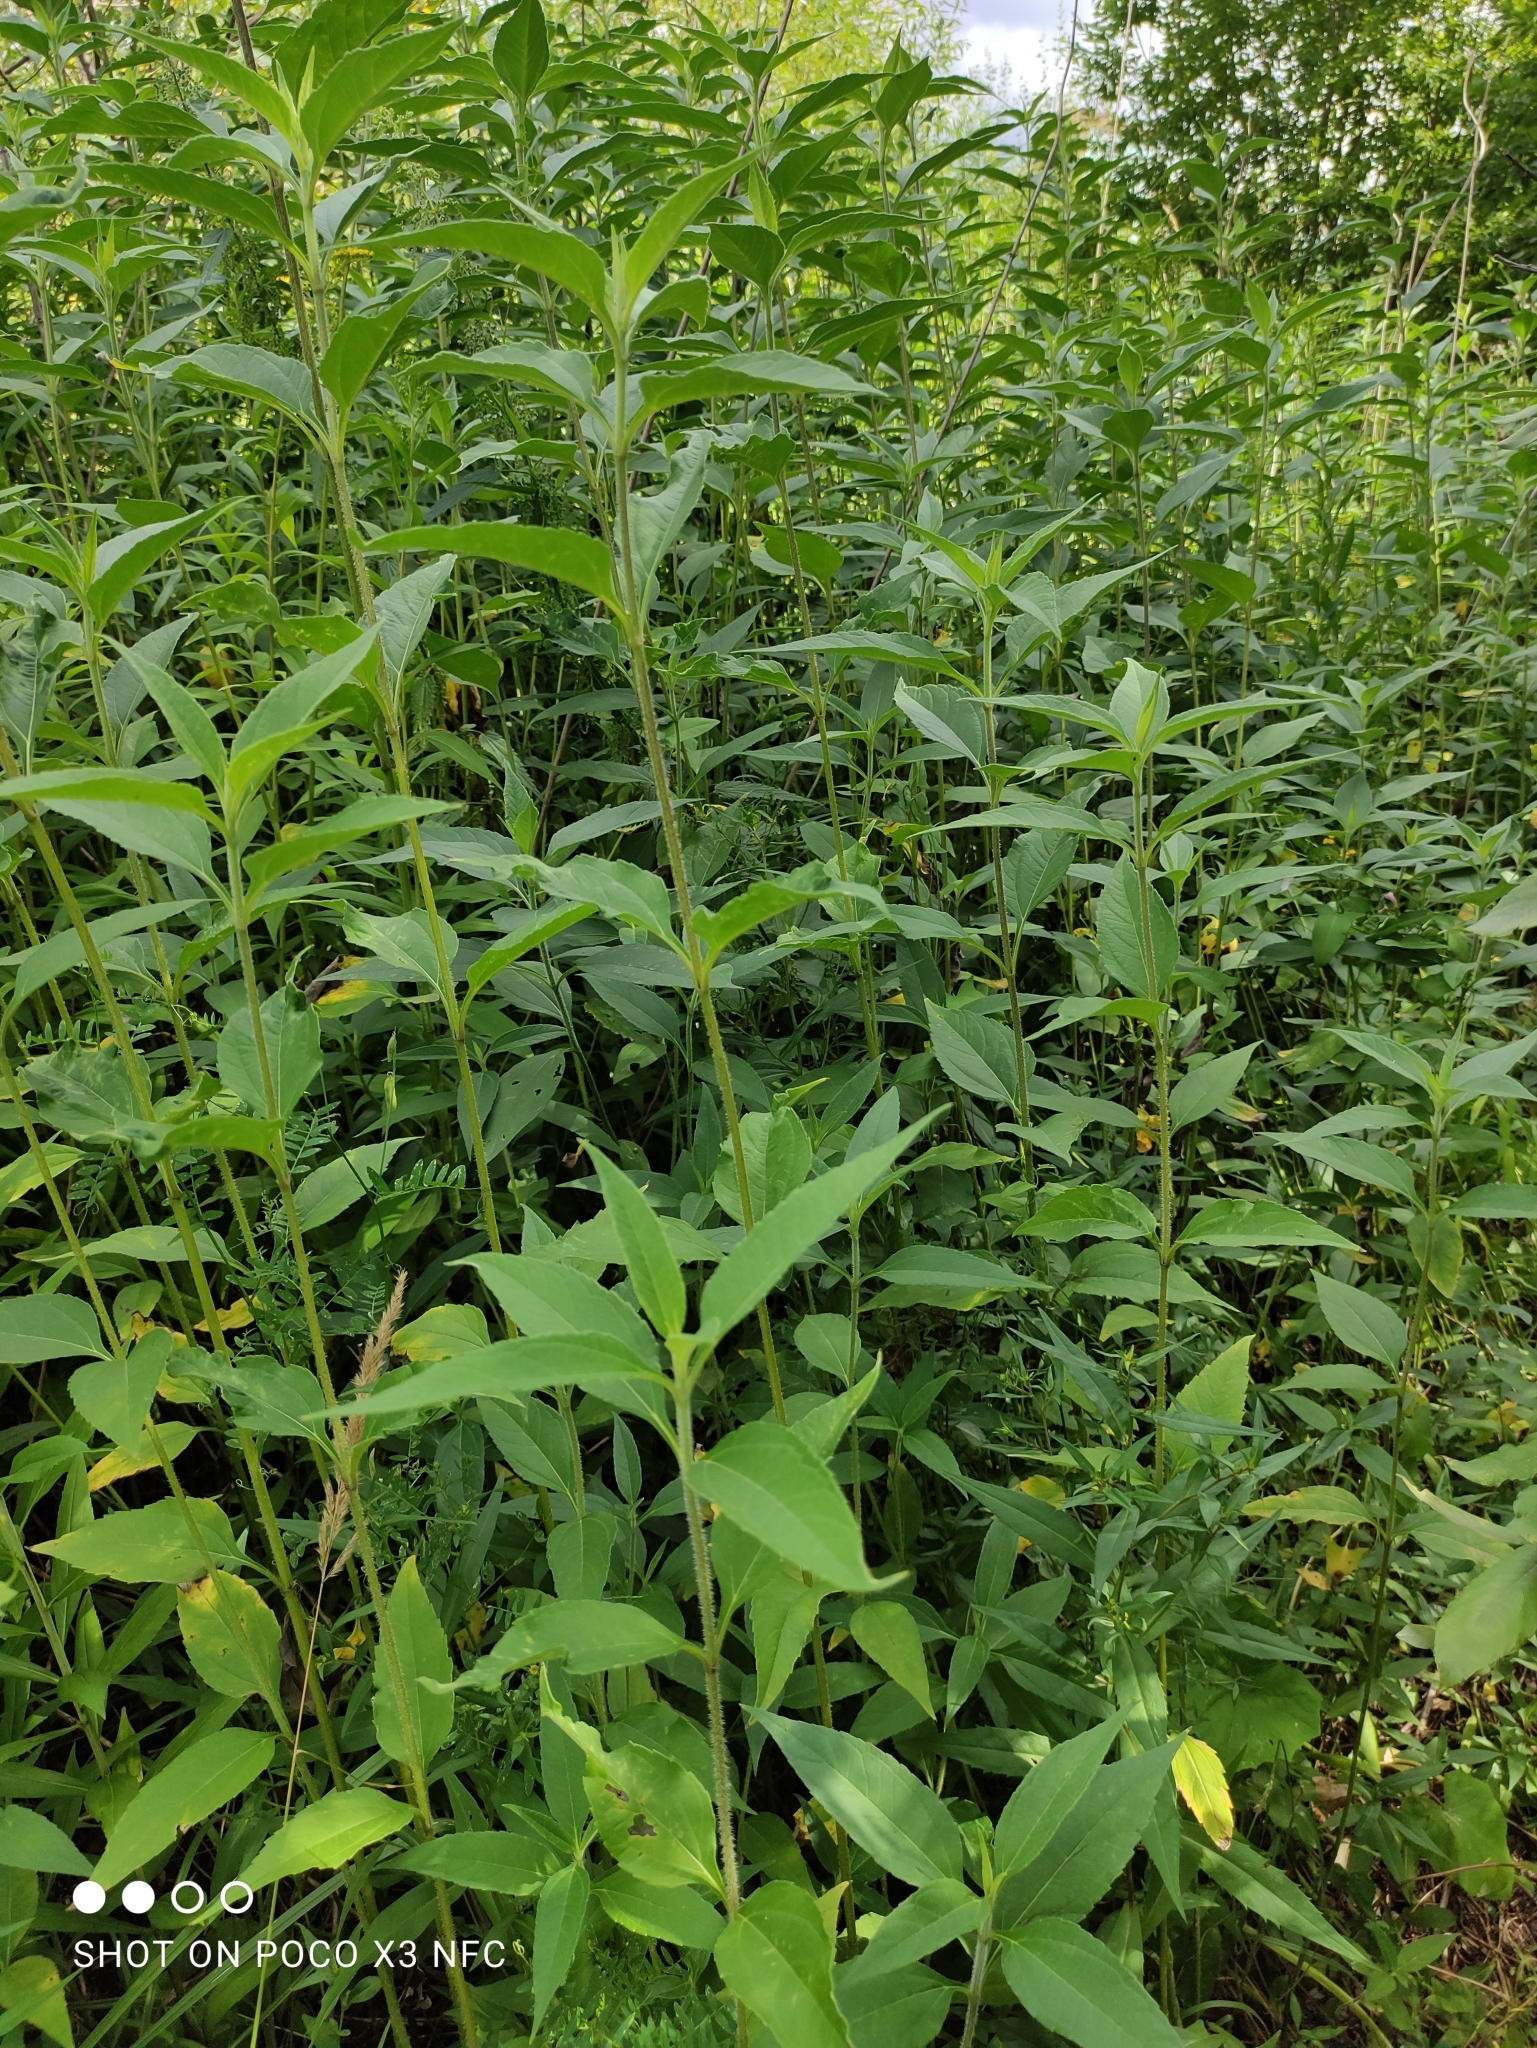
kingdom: Plantae
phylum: Tracheophyta
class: Magnoliopsida
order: Asterales
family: Asteraceae
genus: Helianthus
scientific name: Helianthus tuberosus
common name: Jerusalem artichoke
